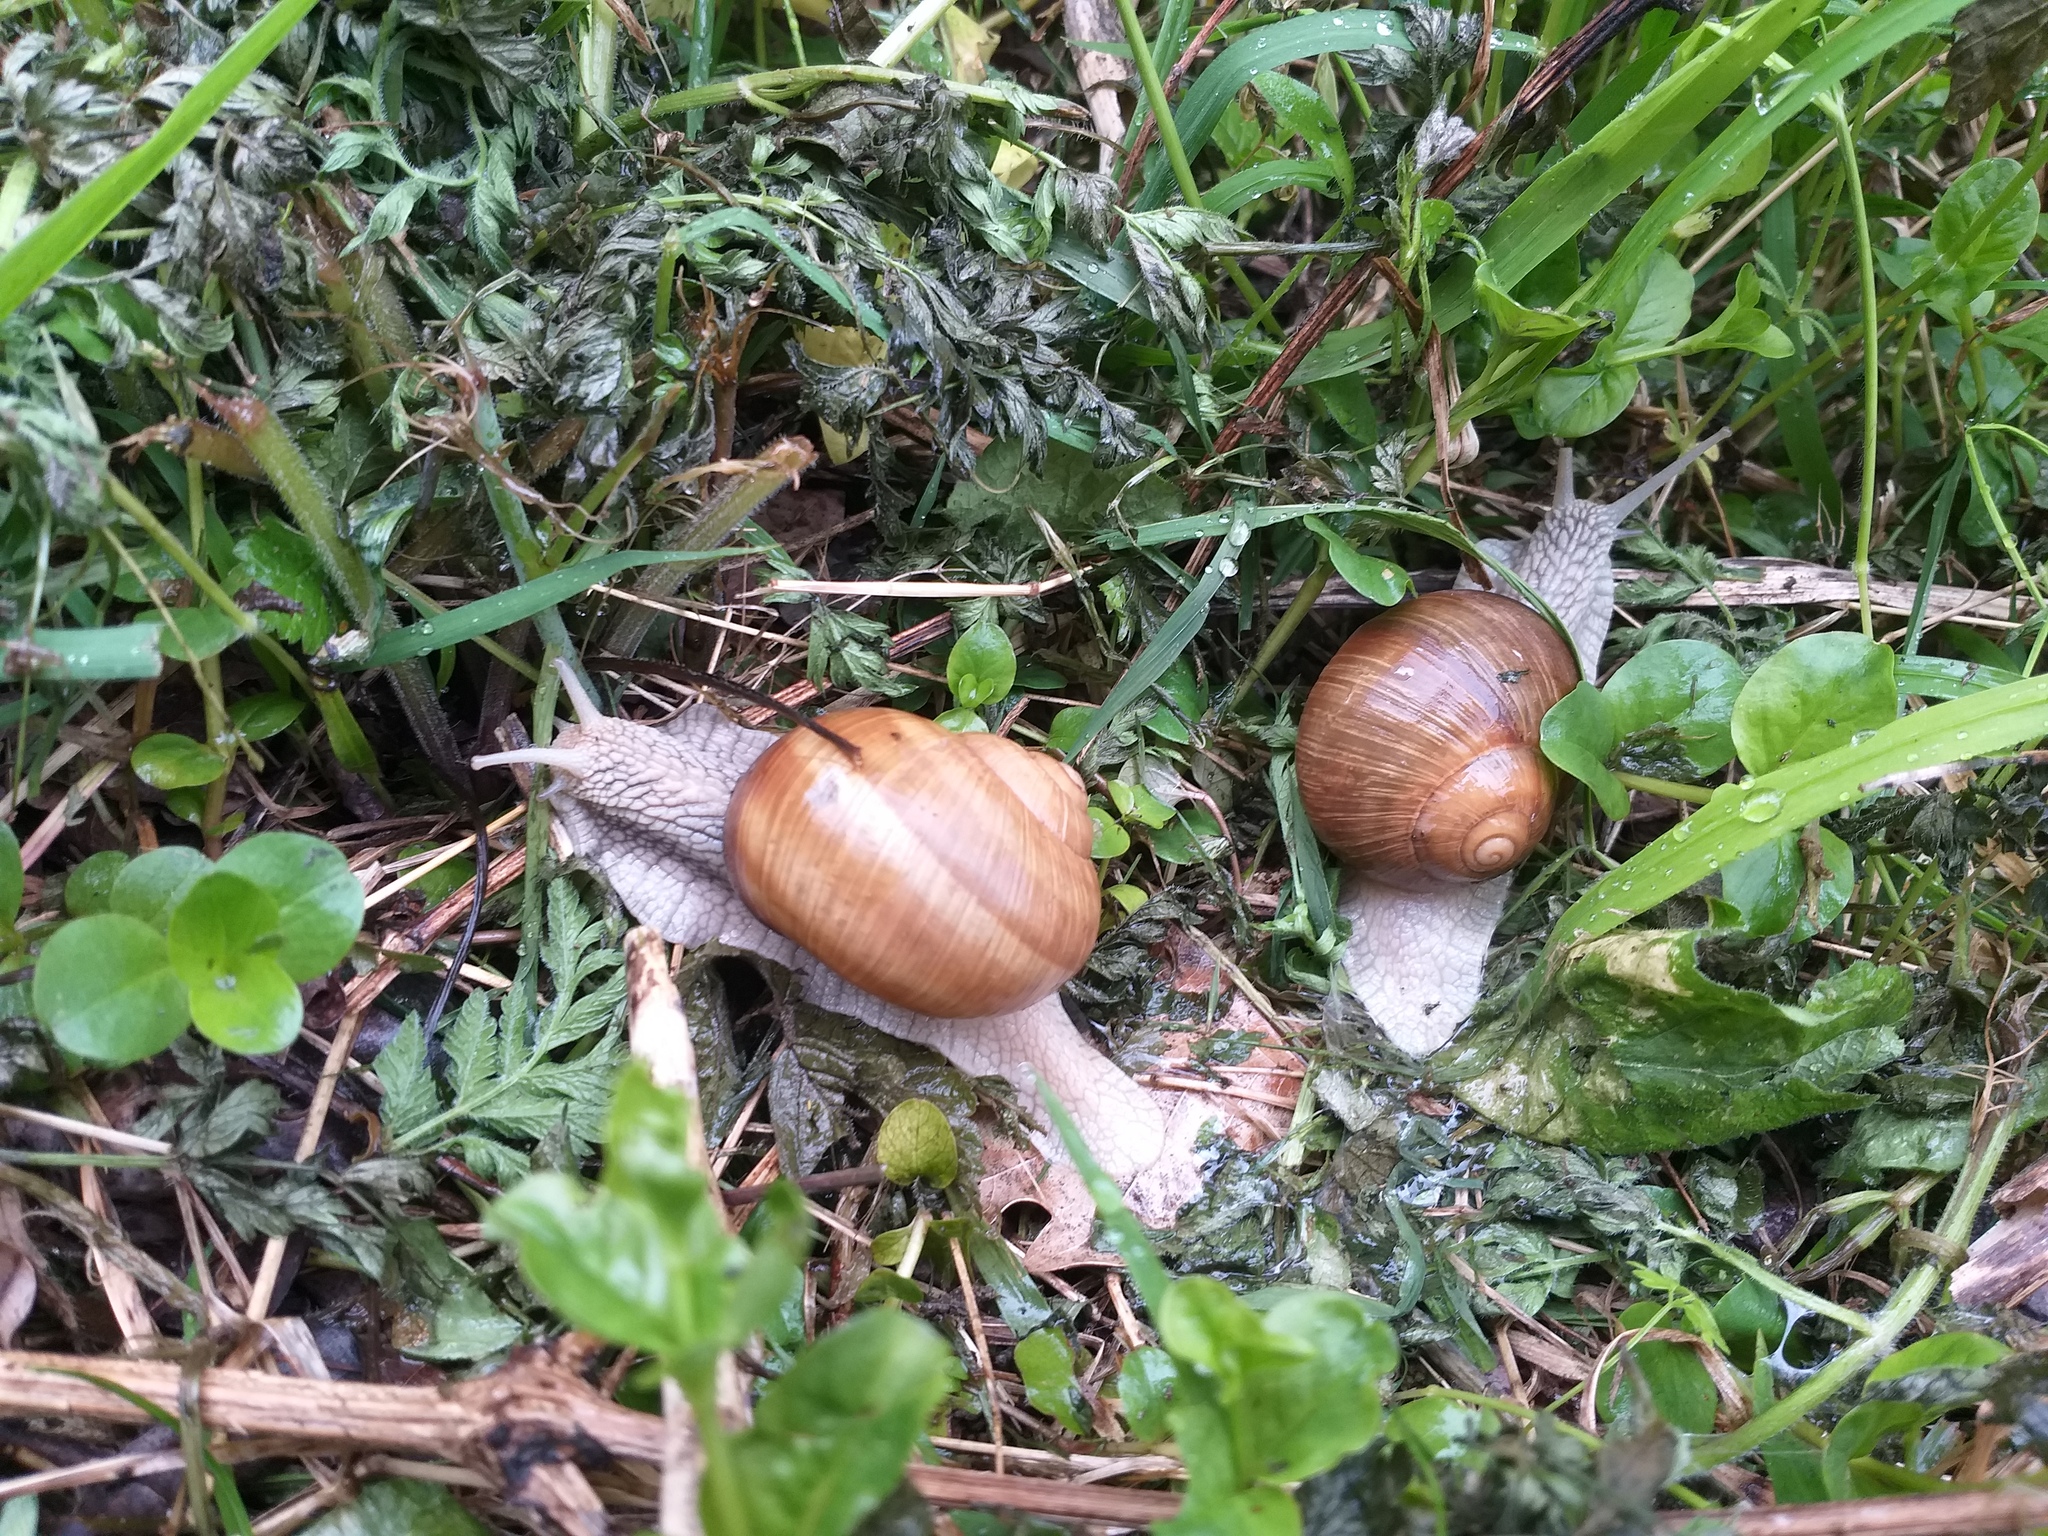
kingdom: Animalia
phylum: Mollusca
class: Gastropoda
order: Stylommatophora
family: Helicidae
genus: Helix
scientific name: Helix pomatia
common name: Roman snail
